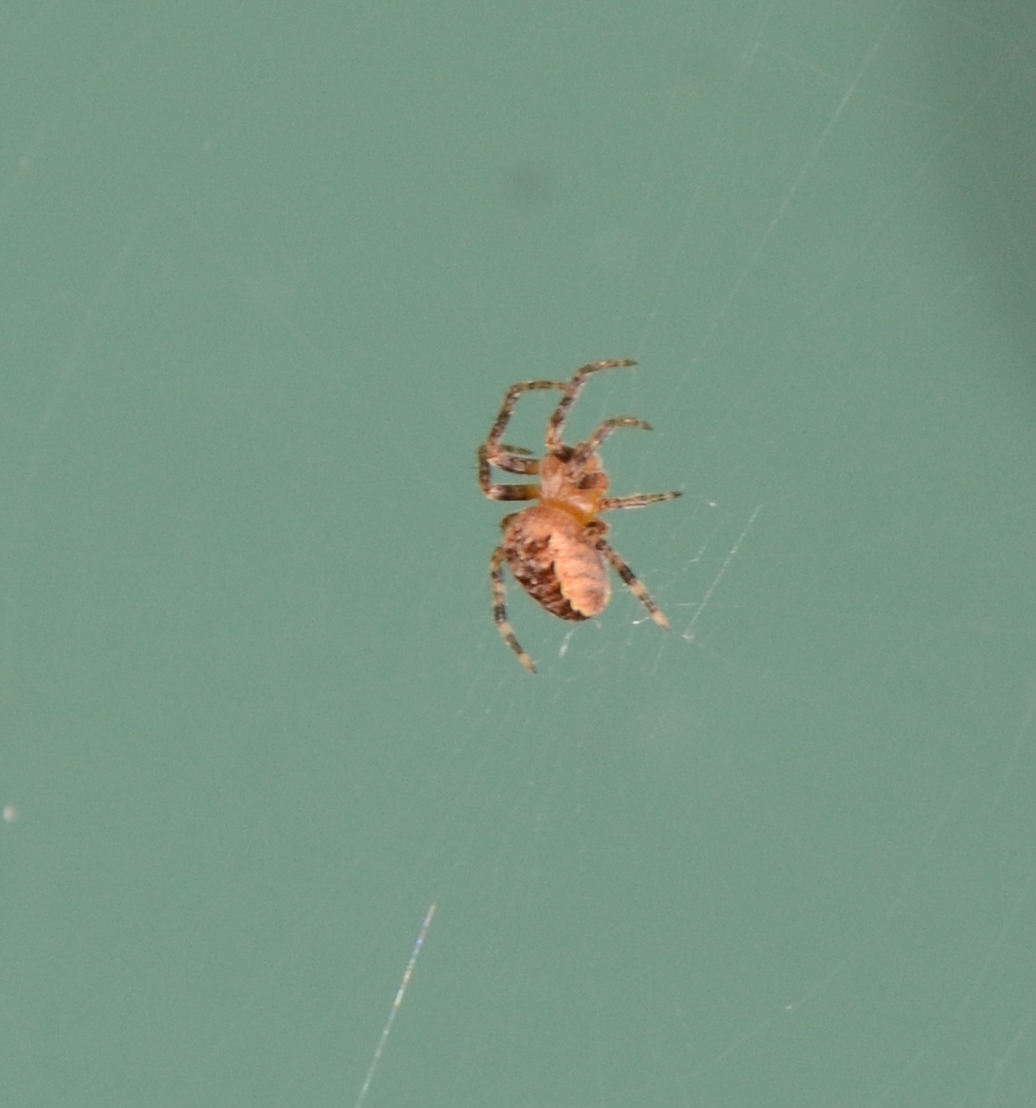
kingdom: Animalia
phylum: Arthropoda
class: Arachnida
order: Araneae
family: Araneidae
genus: Araneus
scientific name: Araneus diadematus
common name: Cross orbweaver
